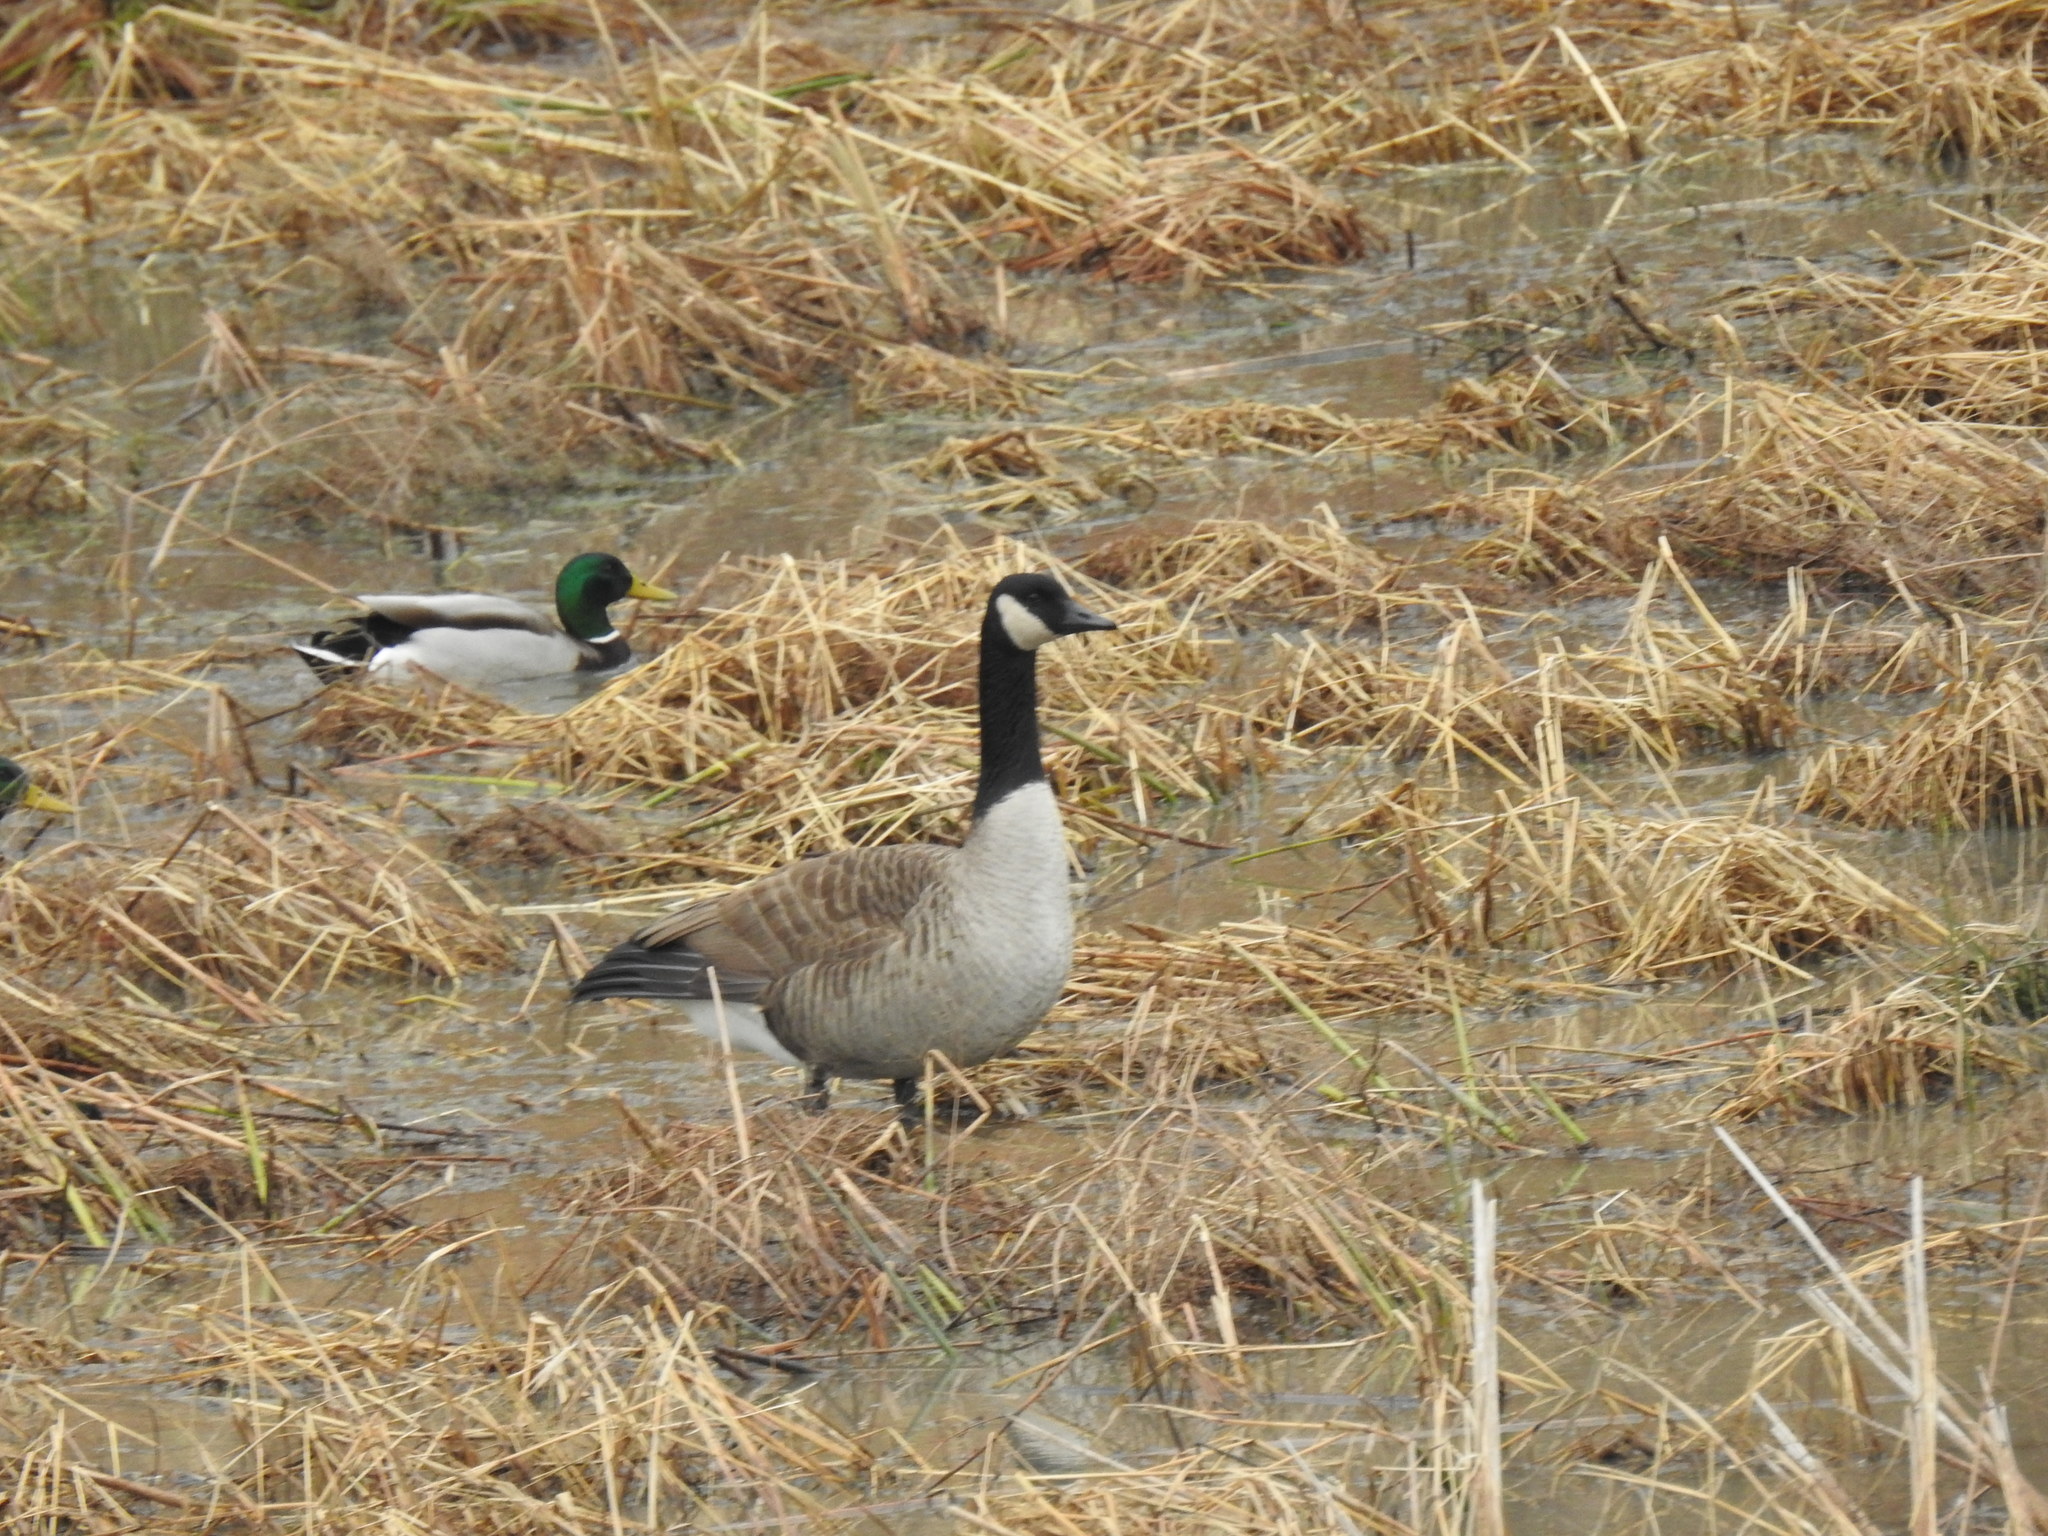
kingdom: Animalia
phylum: Chordata
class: Aves
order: Anseriformes
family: Anatidae
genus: Anas
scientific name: Anas platyrhynchos
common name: Mallard
